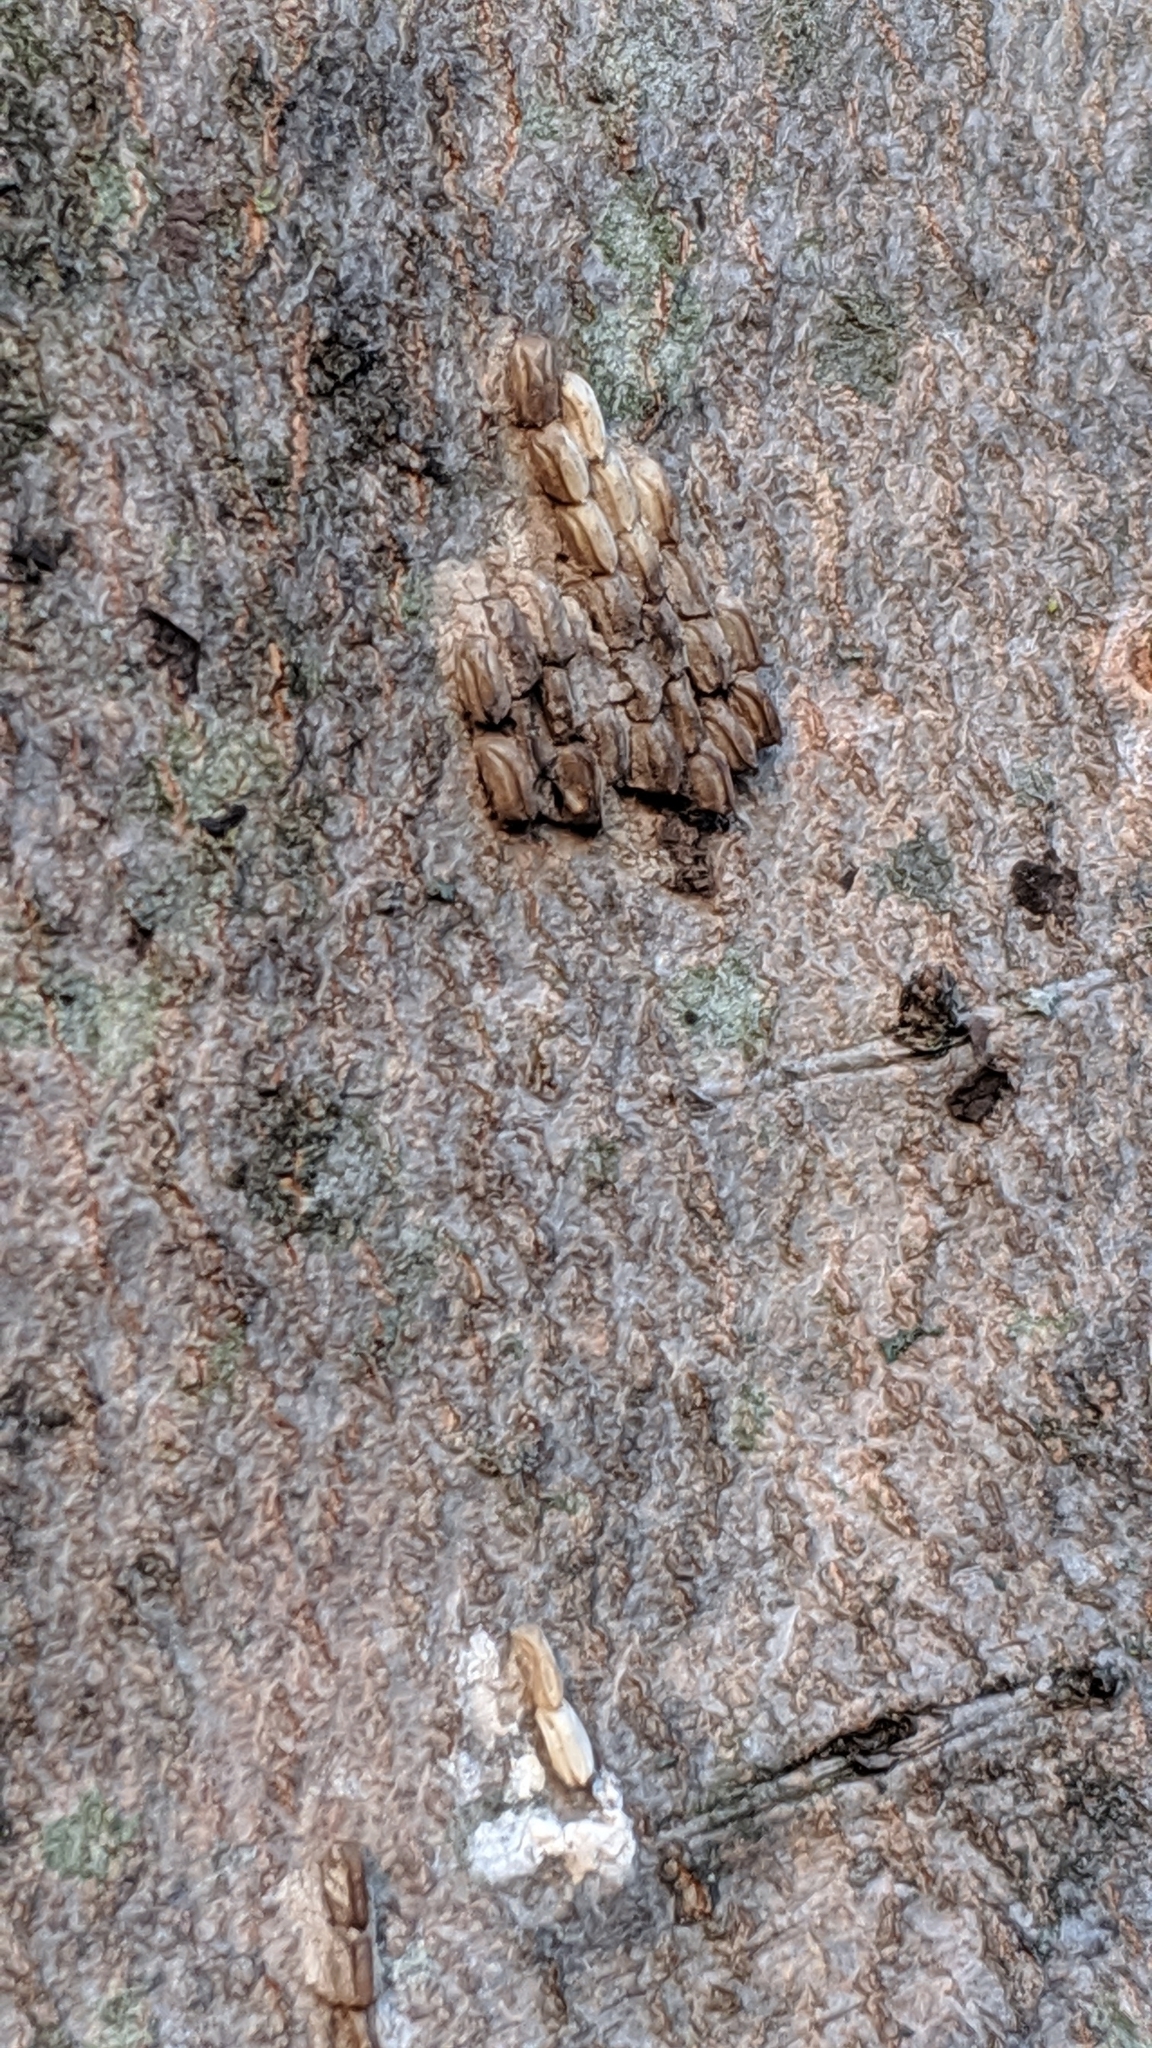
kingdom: Animalia
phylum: Arthropoda
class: Insecta
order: Hemiptera
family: Fulgoridae
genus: Lycorma
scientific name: Lycorma delicatula
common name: Spotted lanternfly
